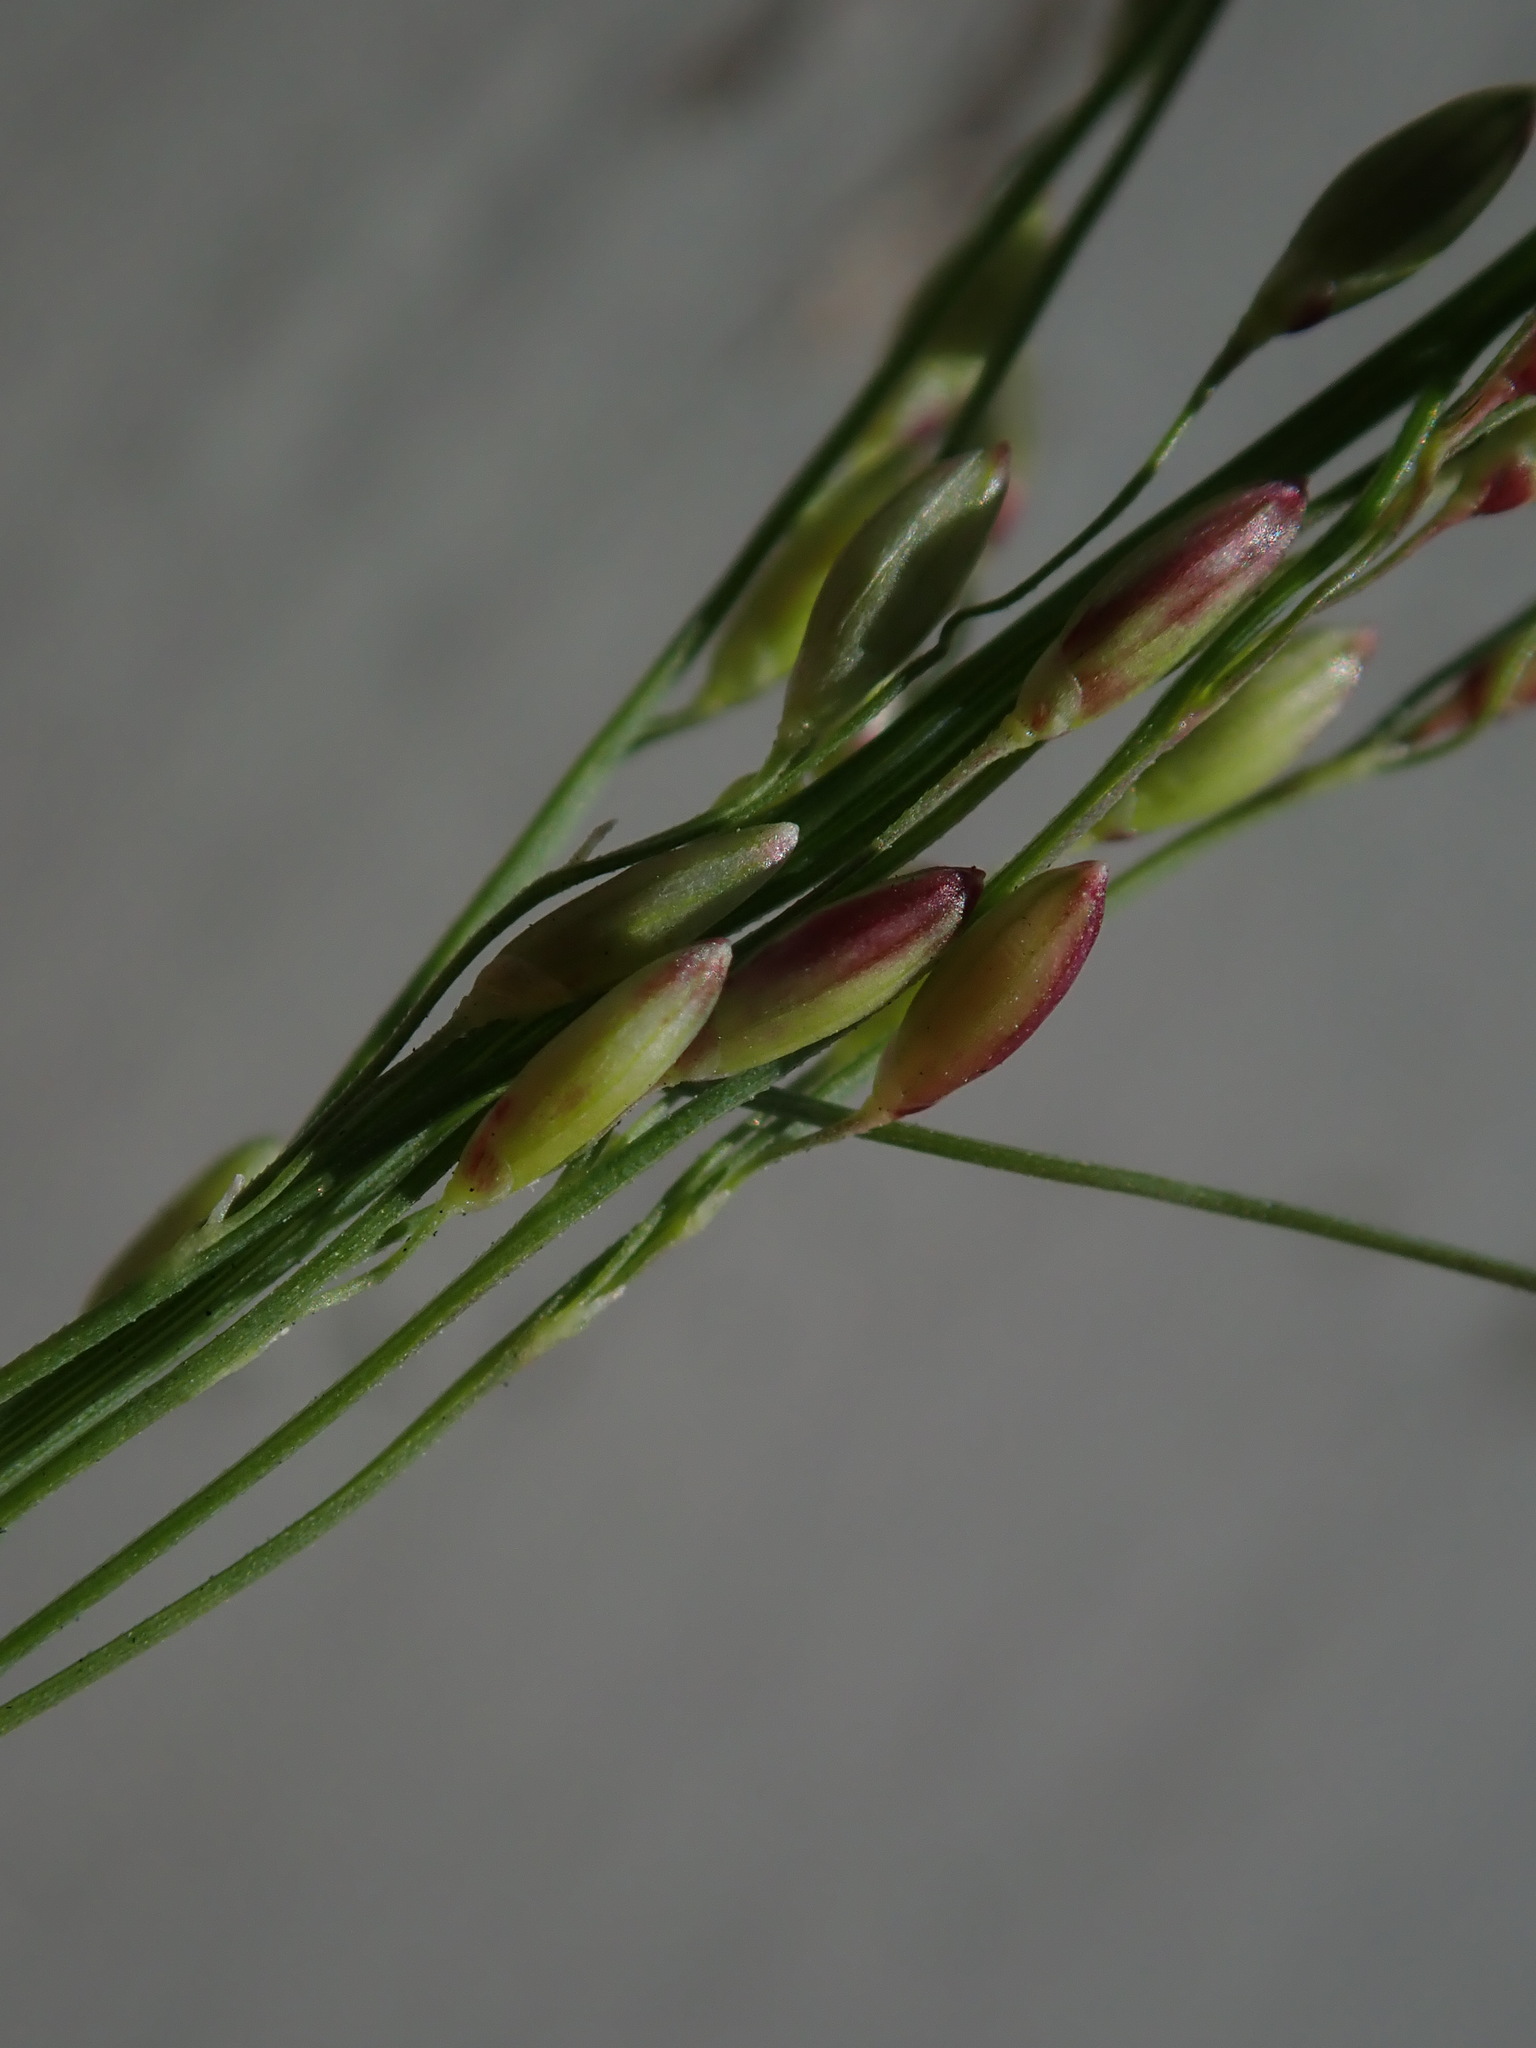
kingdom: Plantae
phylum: Tracheophyta
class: Liliopsida
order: Poales
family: Poaceae
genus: Megathyrsus
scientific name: Megathyrsus maximus
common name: Guineagrass
